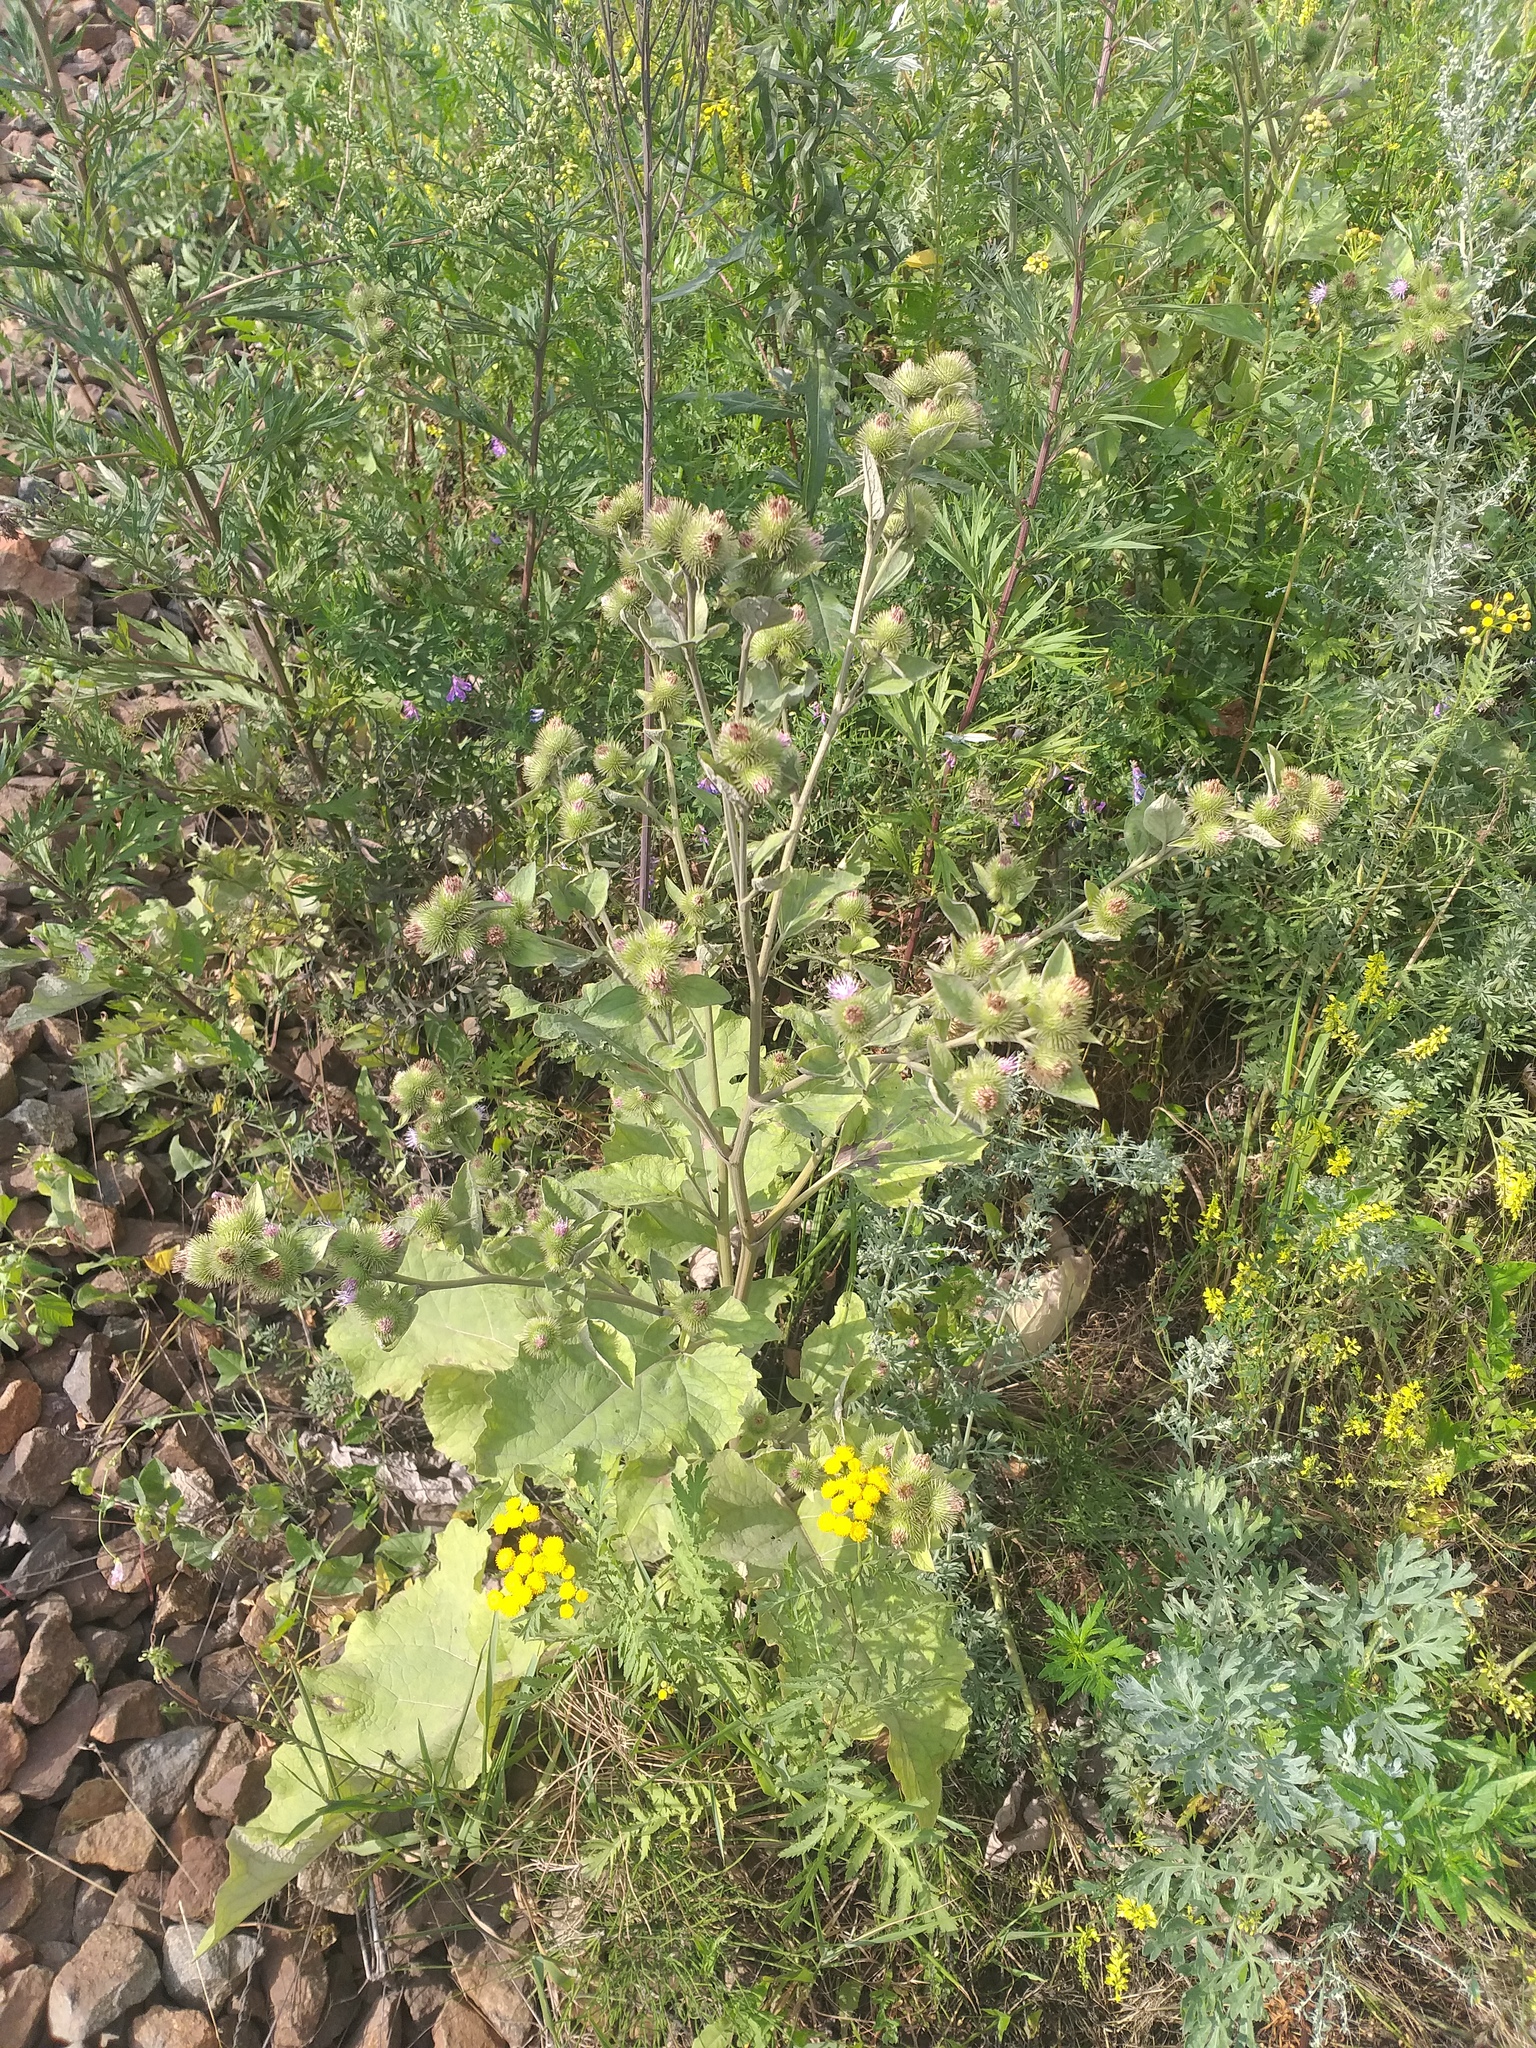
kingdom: Plantae
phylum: Tracheophyta
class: Magnoliopsida
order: Asterales
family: Asteraceae
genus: Arctium
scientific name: Arctium minus
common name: Lesser burdock
